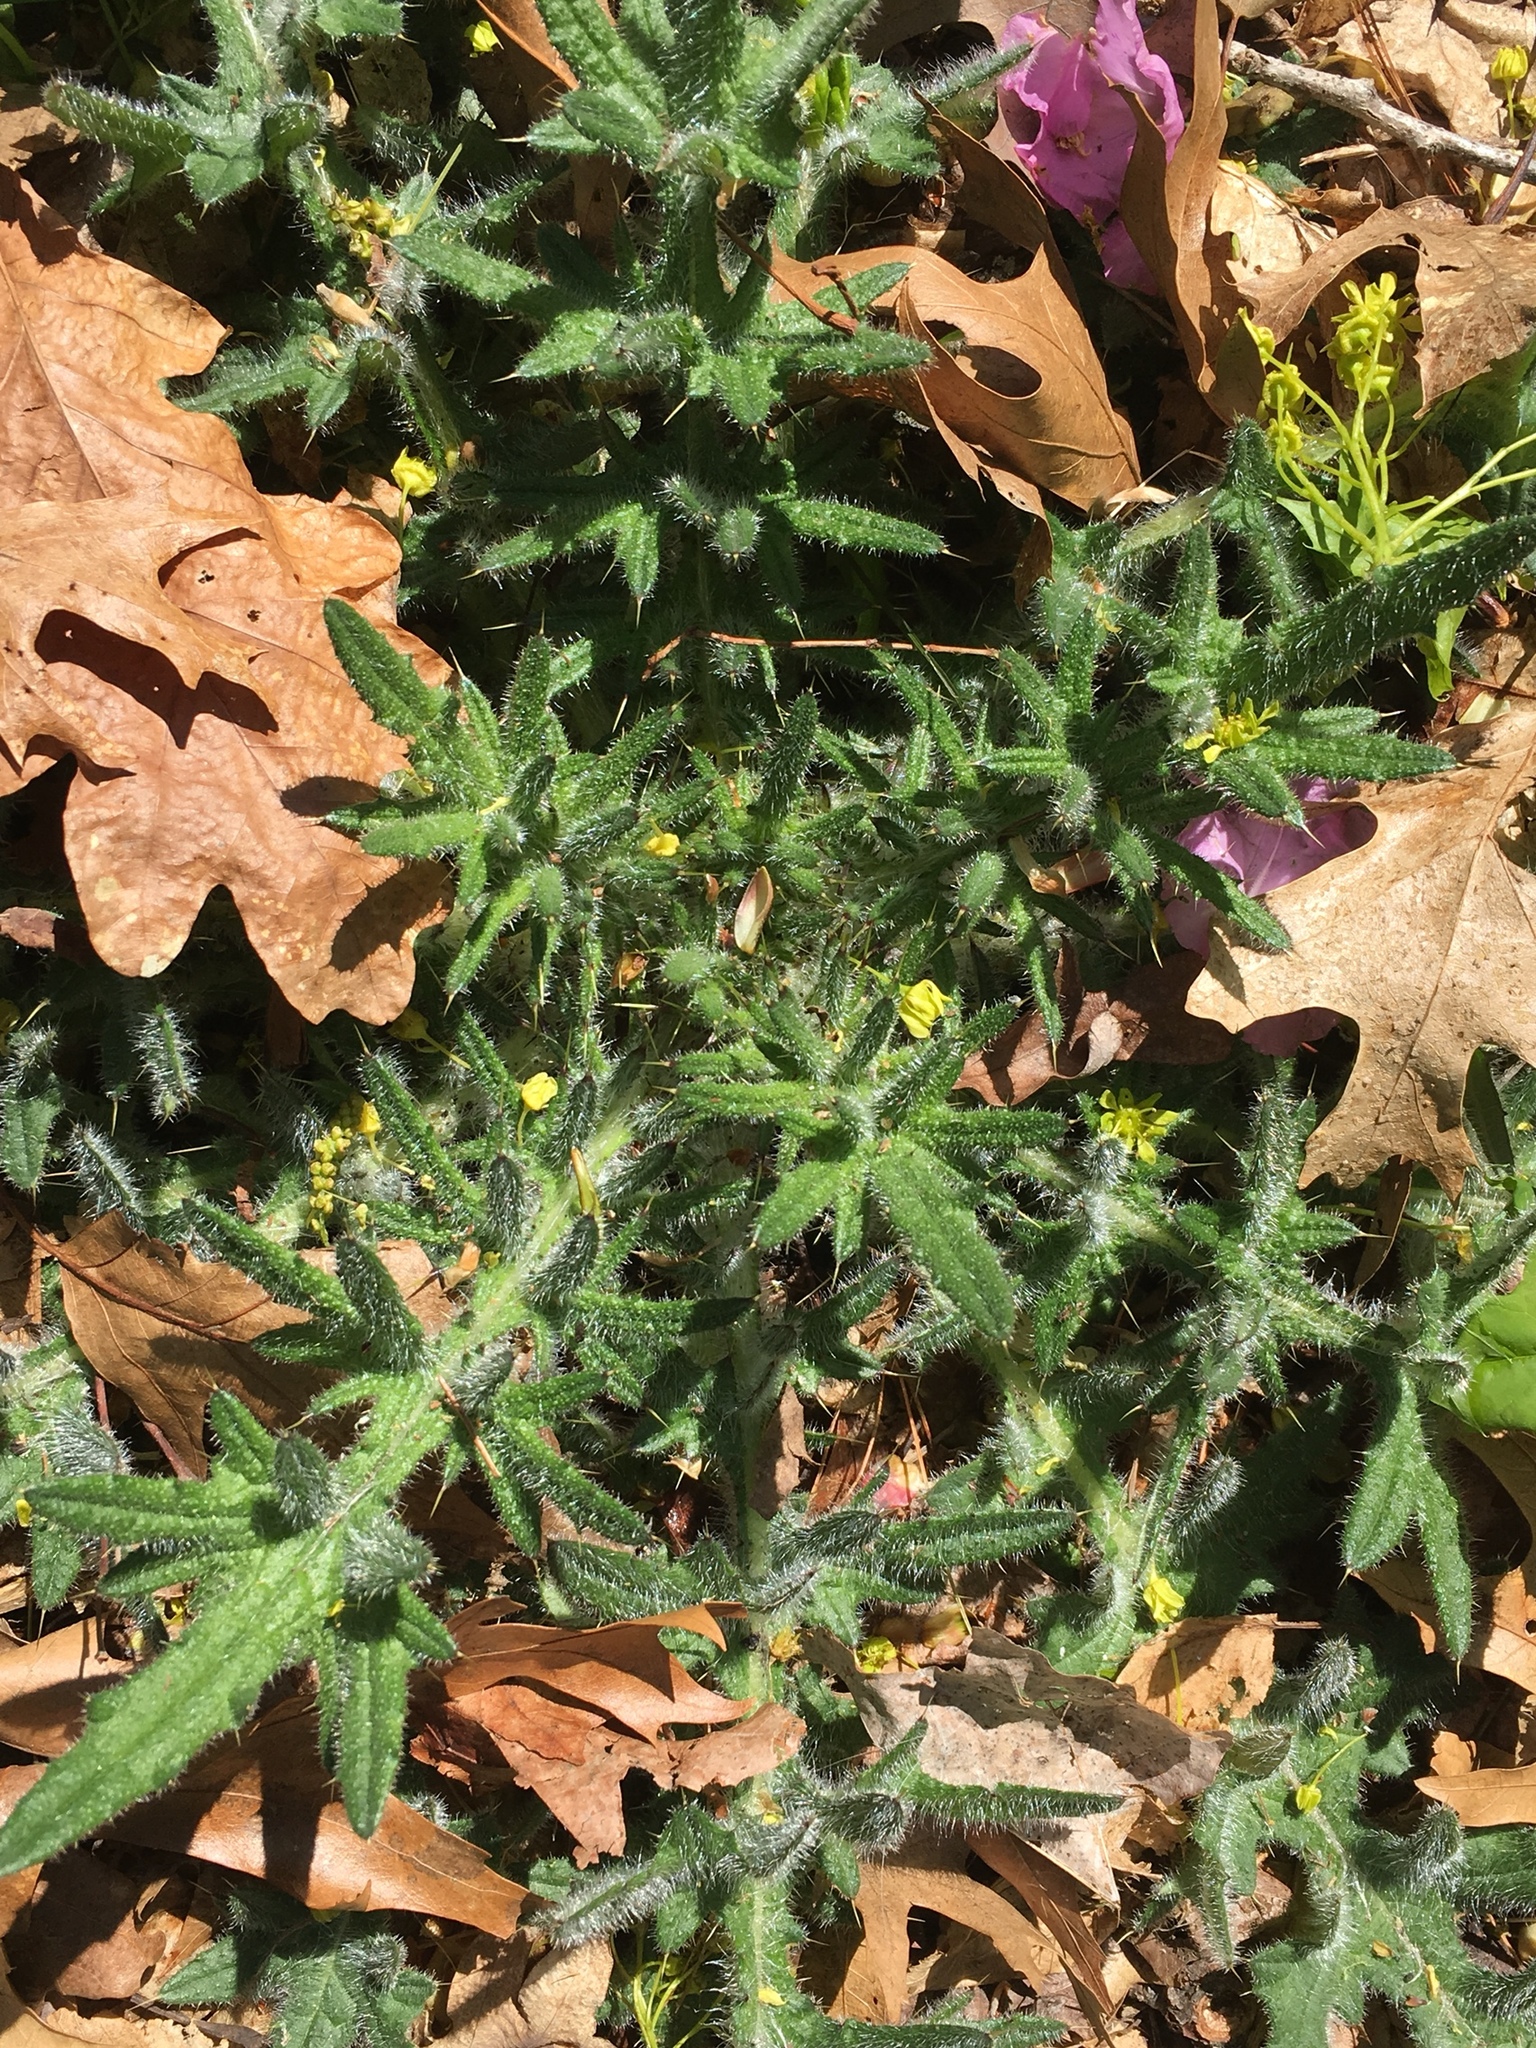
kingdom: Plantae
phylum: Tracheophyta
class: Magnoliopsida
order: Asterales
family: Asteraceae
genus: Cirsium
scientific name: Cirsium vulgare
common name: Bull thistle
